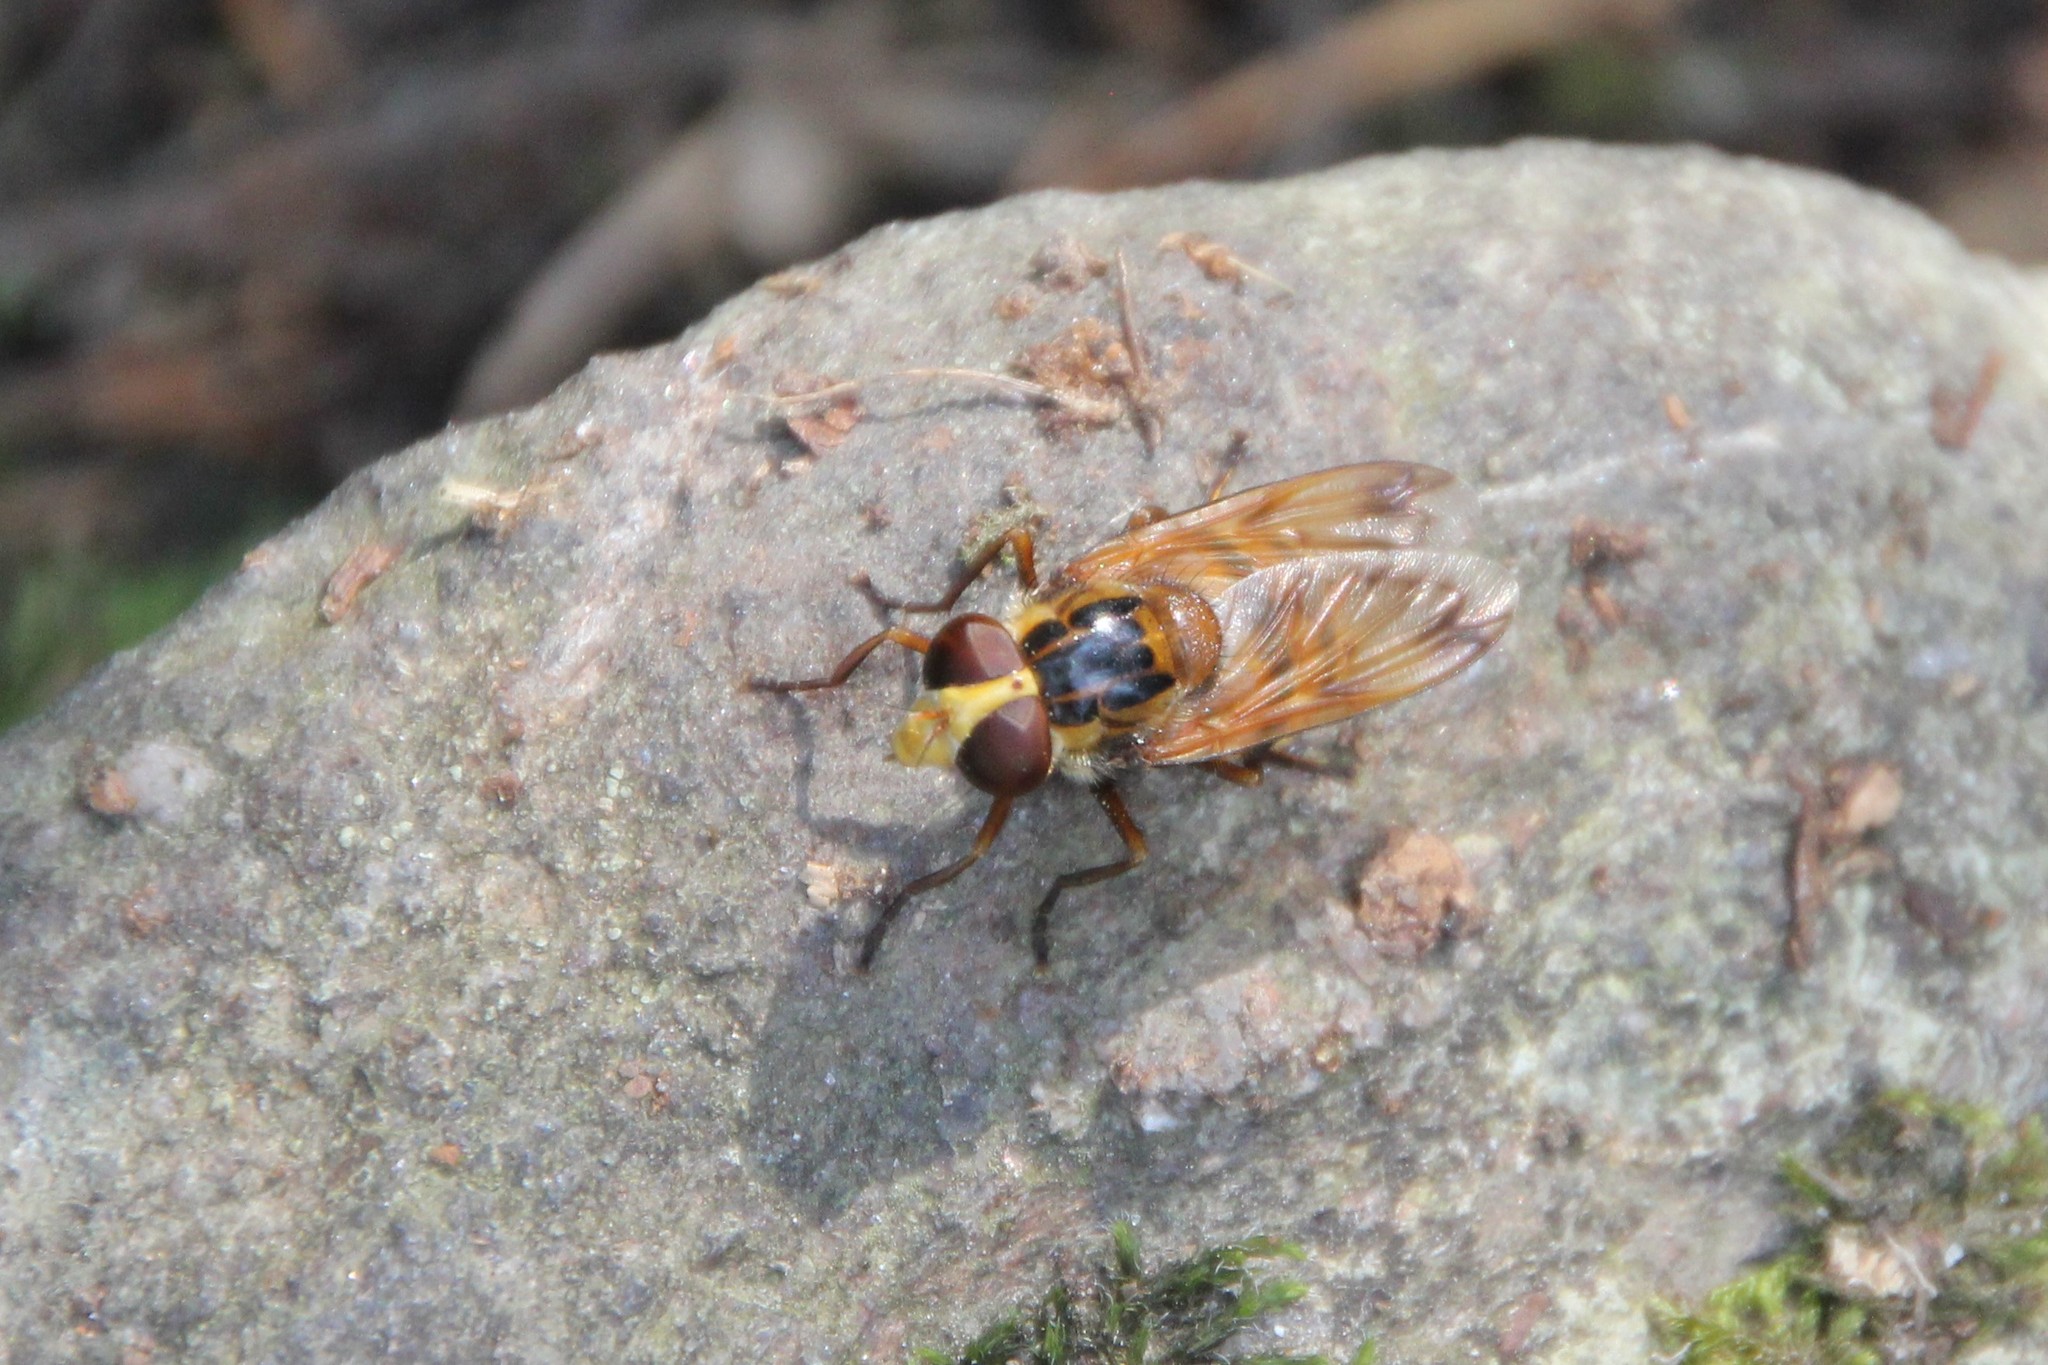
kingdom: Animalia
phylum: Arthropoda
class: Insecta
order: Diptera
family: Syrphidae
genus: Volucella
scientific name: Volucella inanis
